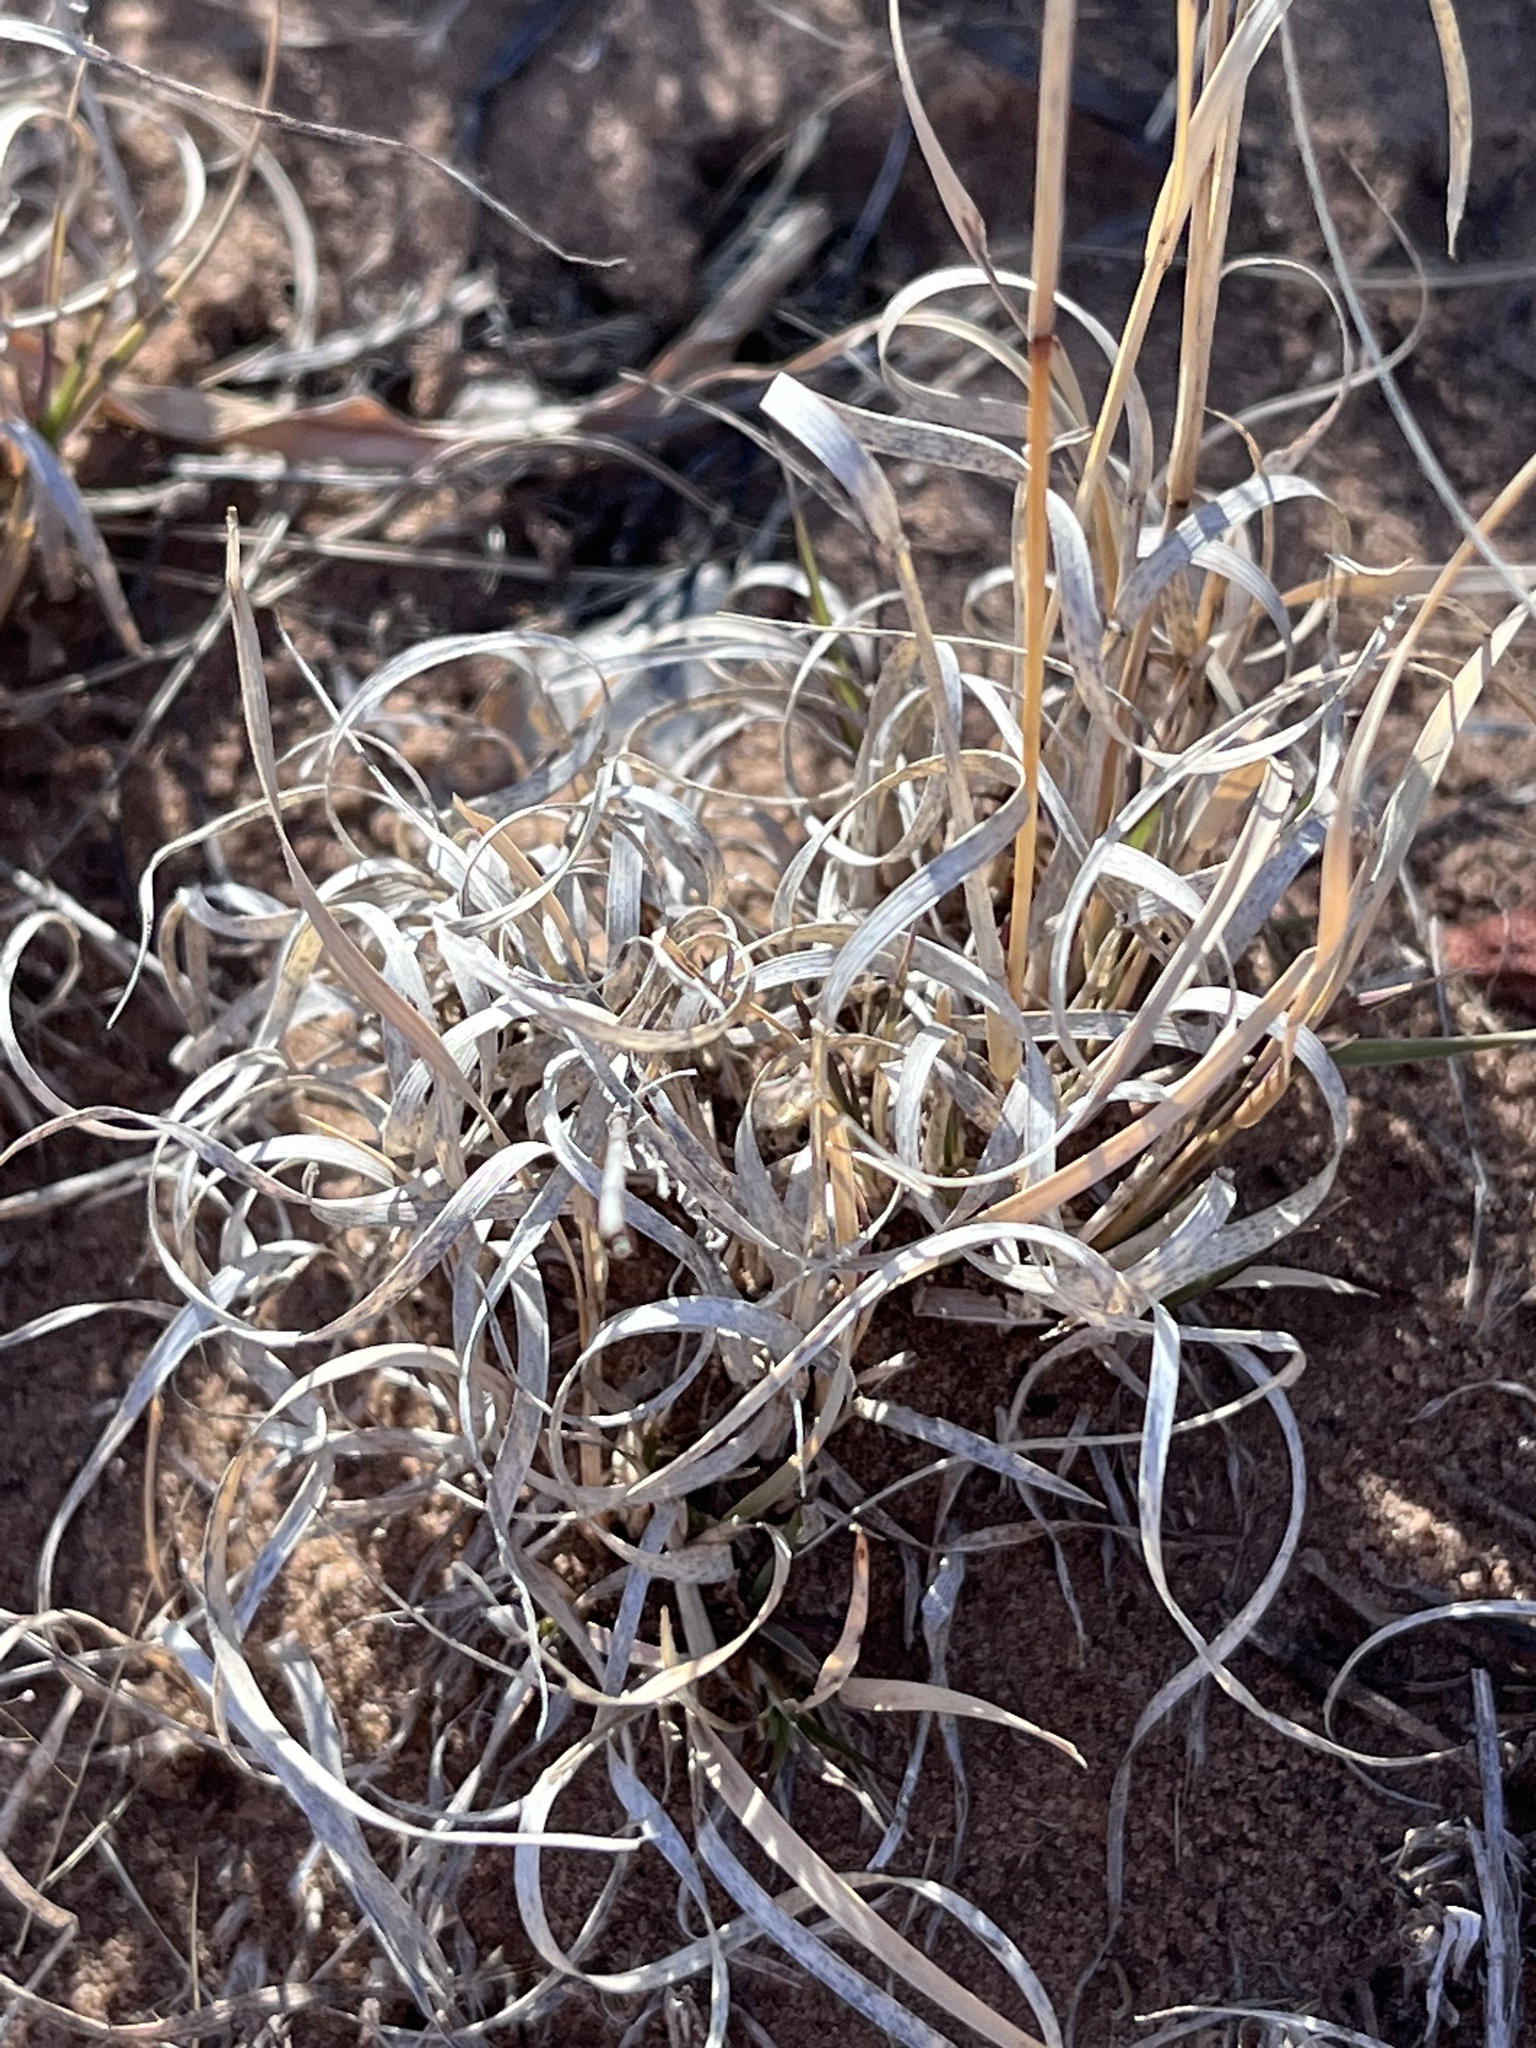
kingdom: Plantae
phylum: Tracheophyta
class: Liliopsida
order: Poales
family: Poaceae
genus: Bouteloua
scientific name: Bouteloua gracilis
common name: Blue grama
